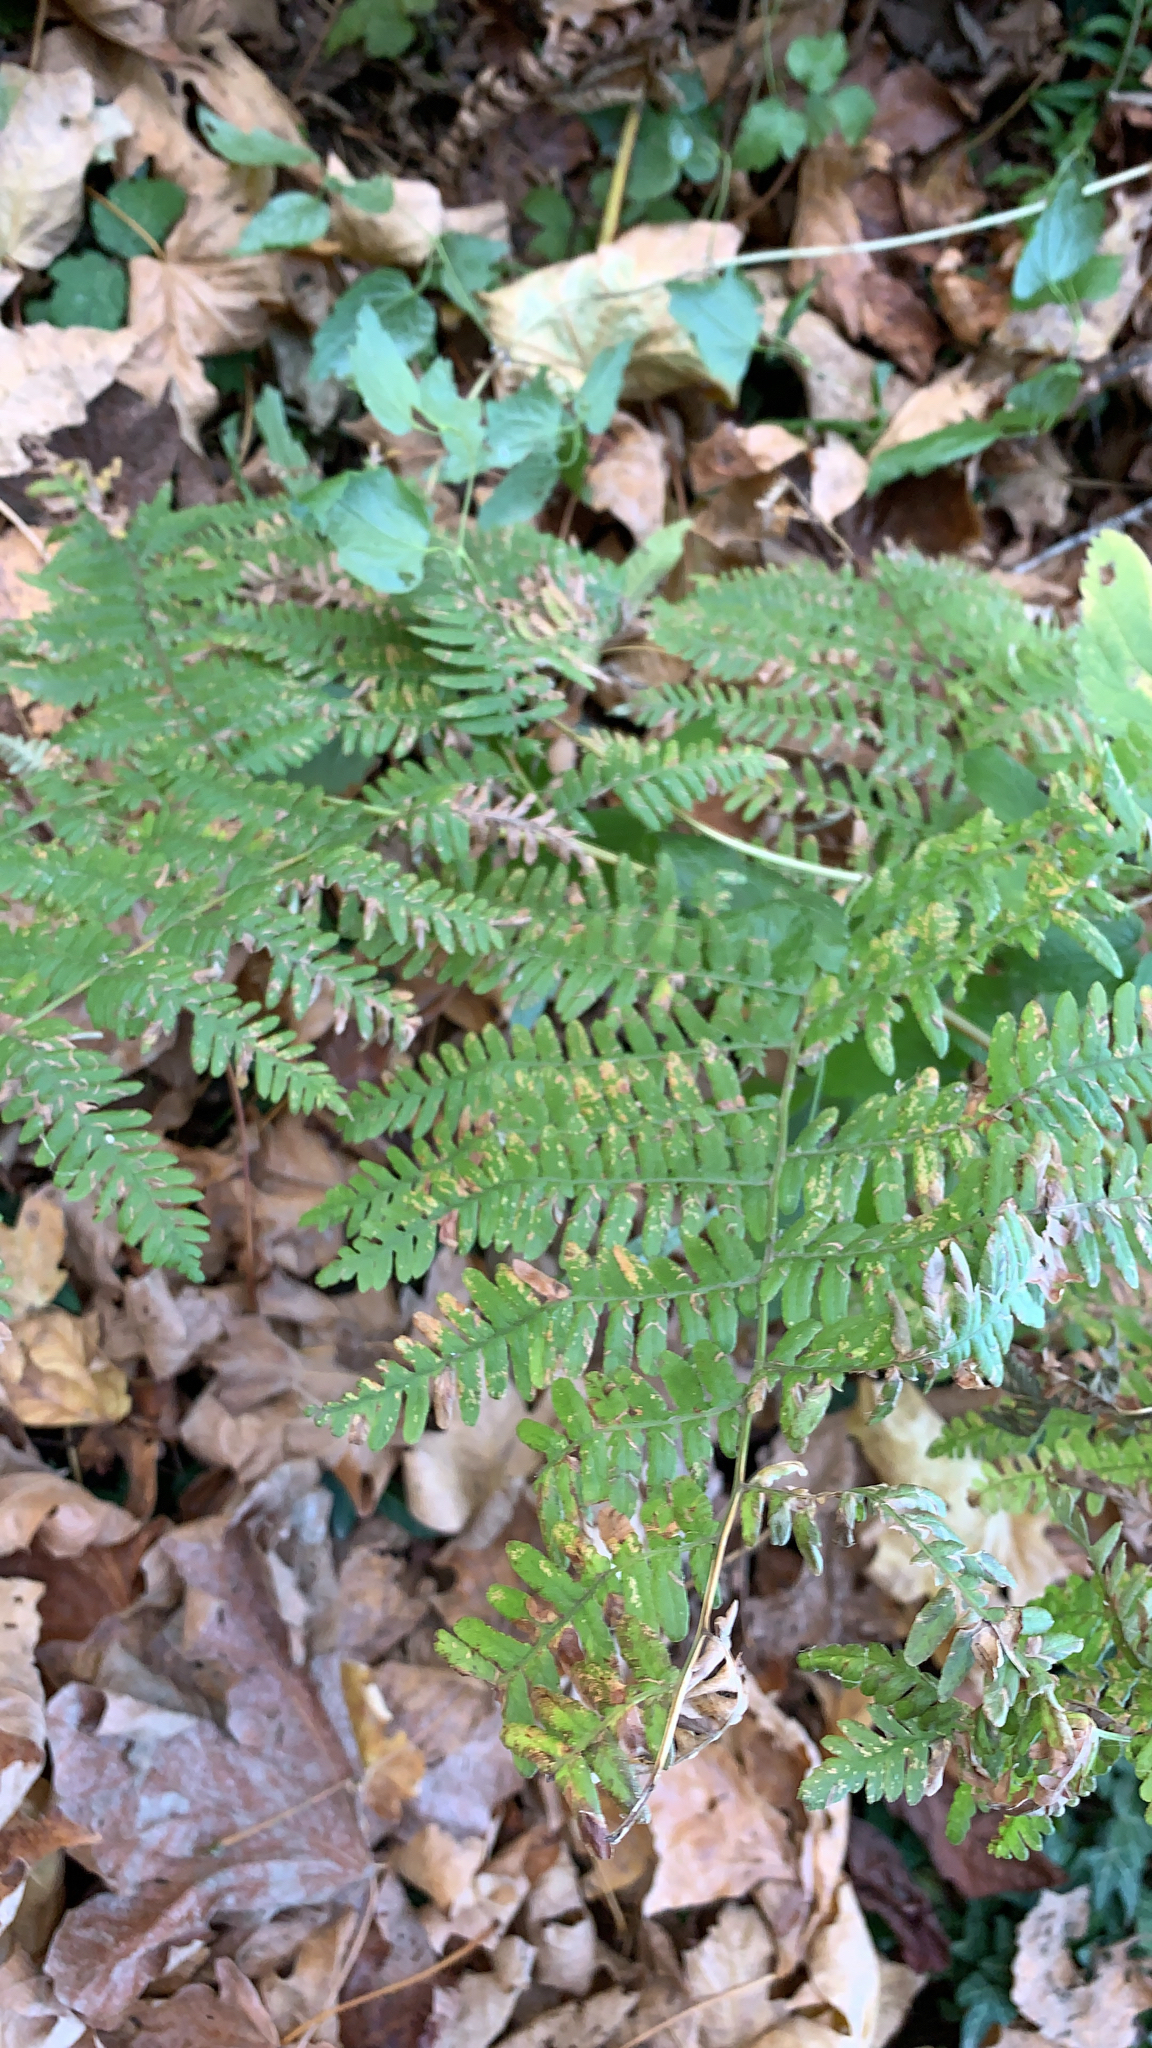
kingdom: Plantae
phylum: Tracheophyta
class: Polypodiopsida
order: Polypodiales
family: Dennstaedtiaceae
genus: Pteridium
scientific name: Pteridium aquilinum
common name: Bracken
